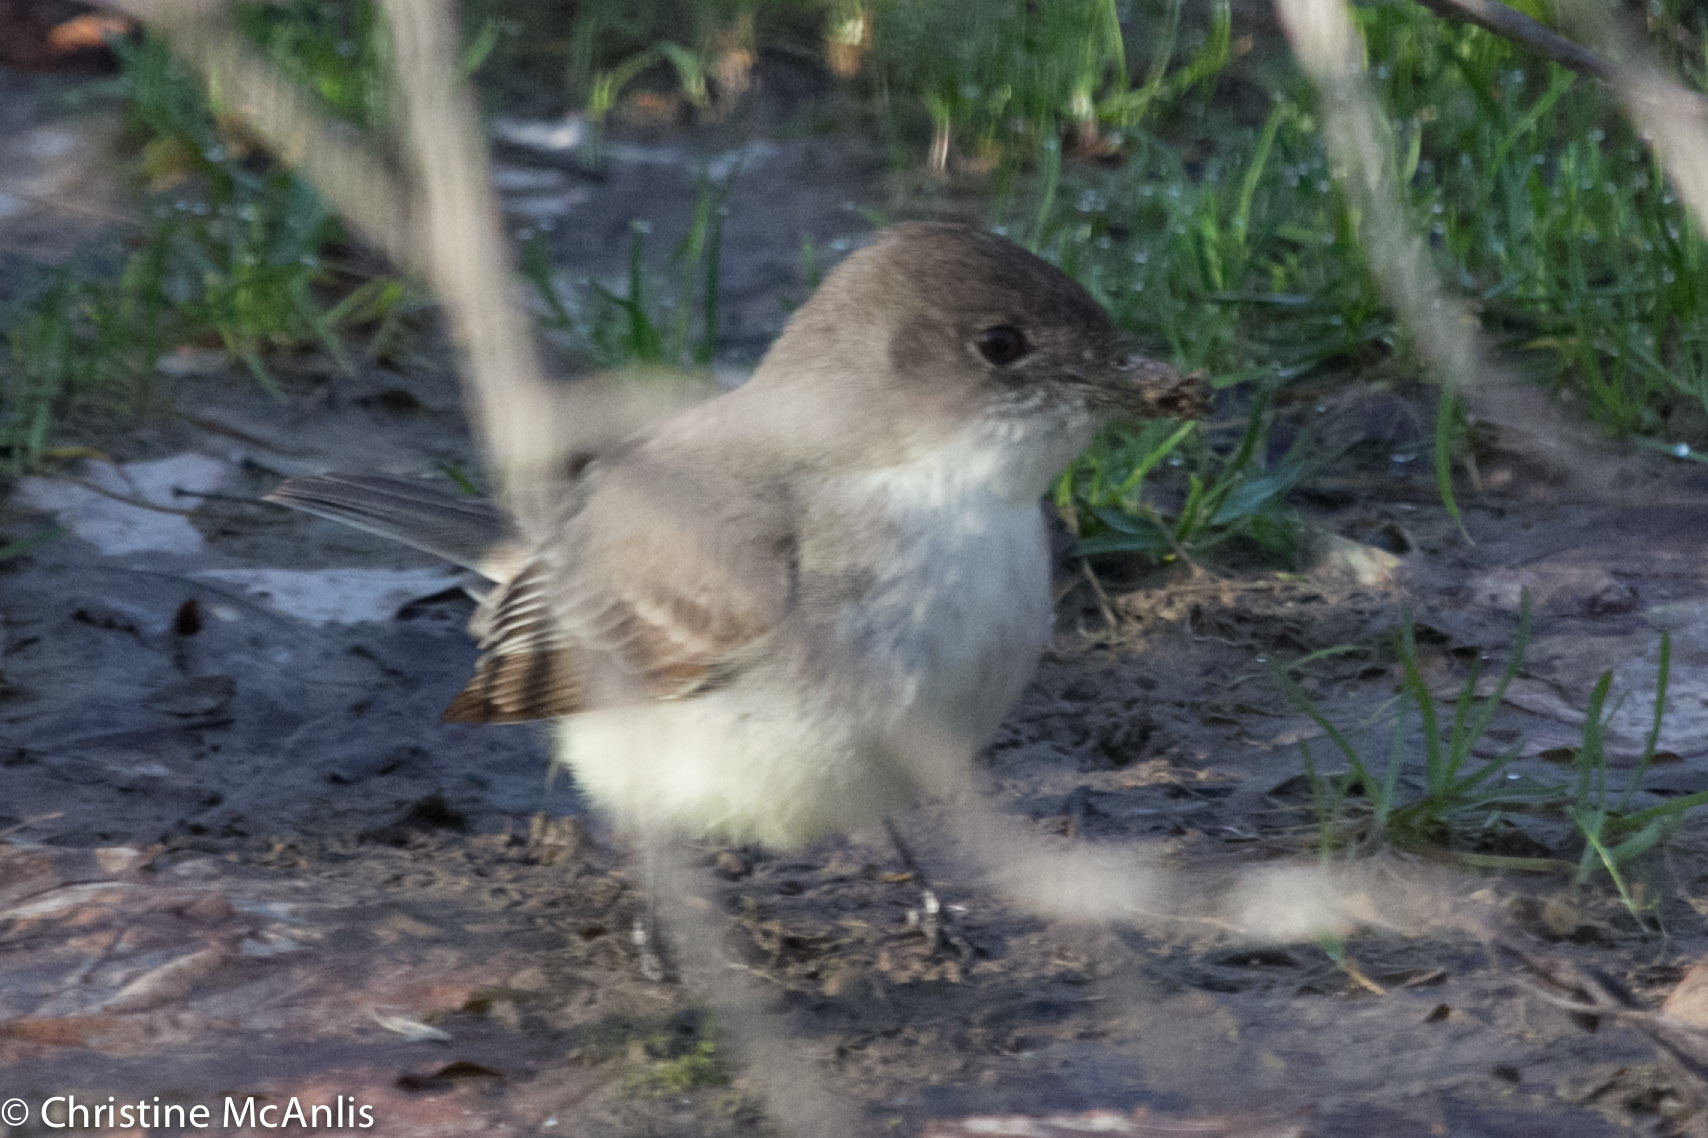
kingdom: Animalia
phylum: Chordata
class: Aves
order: Passeriformes
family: Tyrannidae
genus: Sayornis
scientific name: Sayornis phoebe
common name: Eastern phoebe
